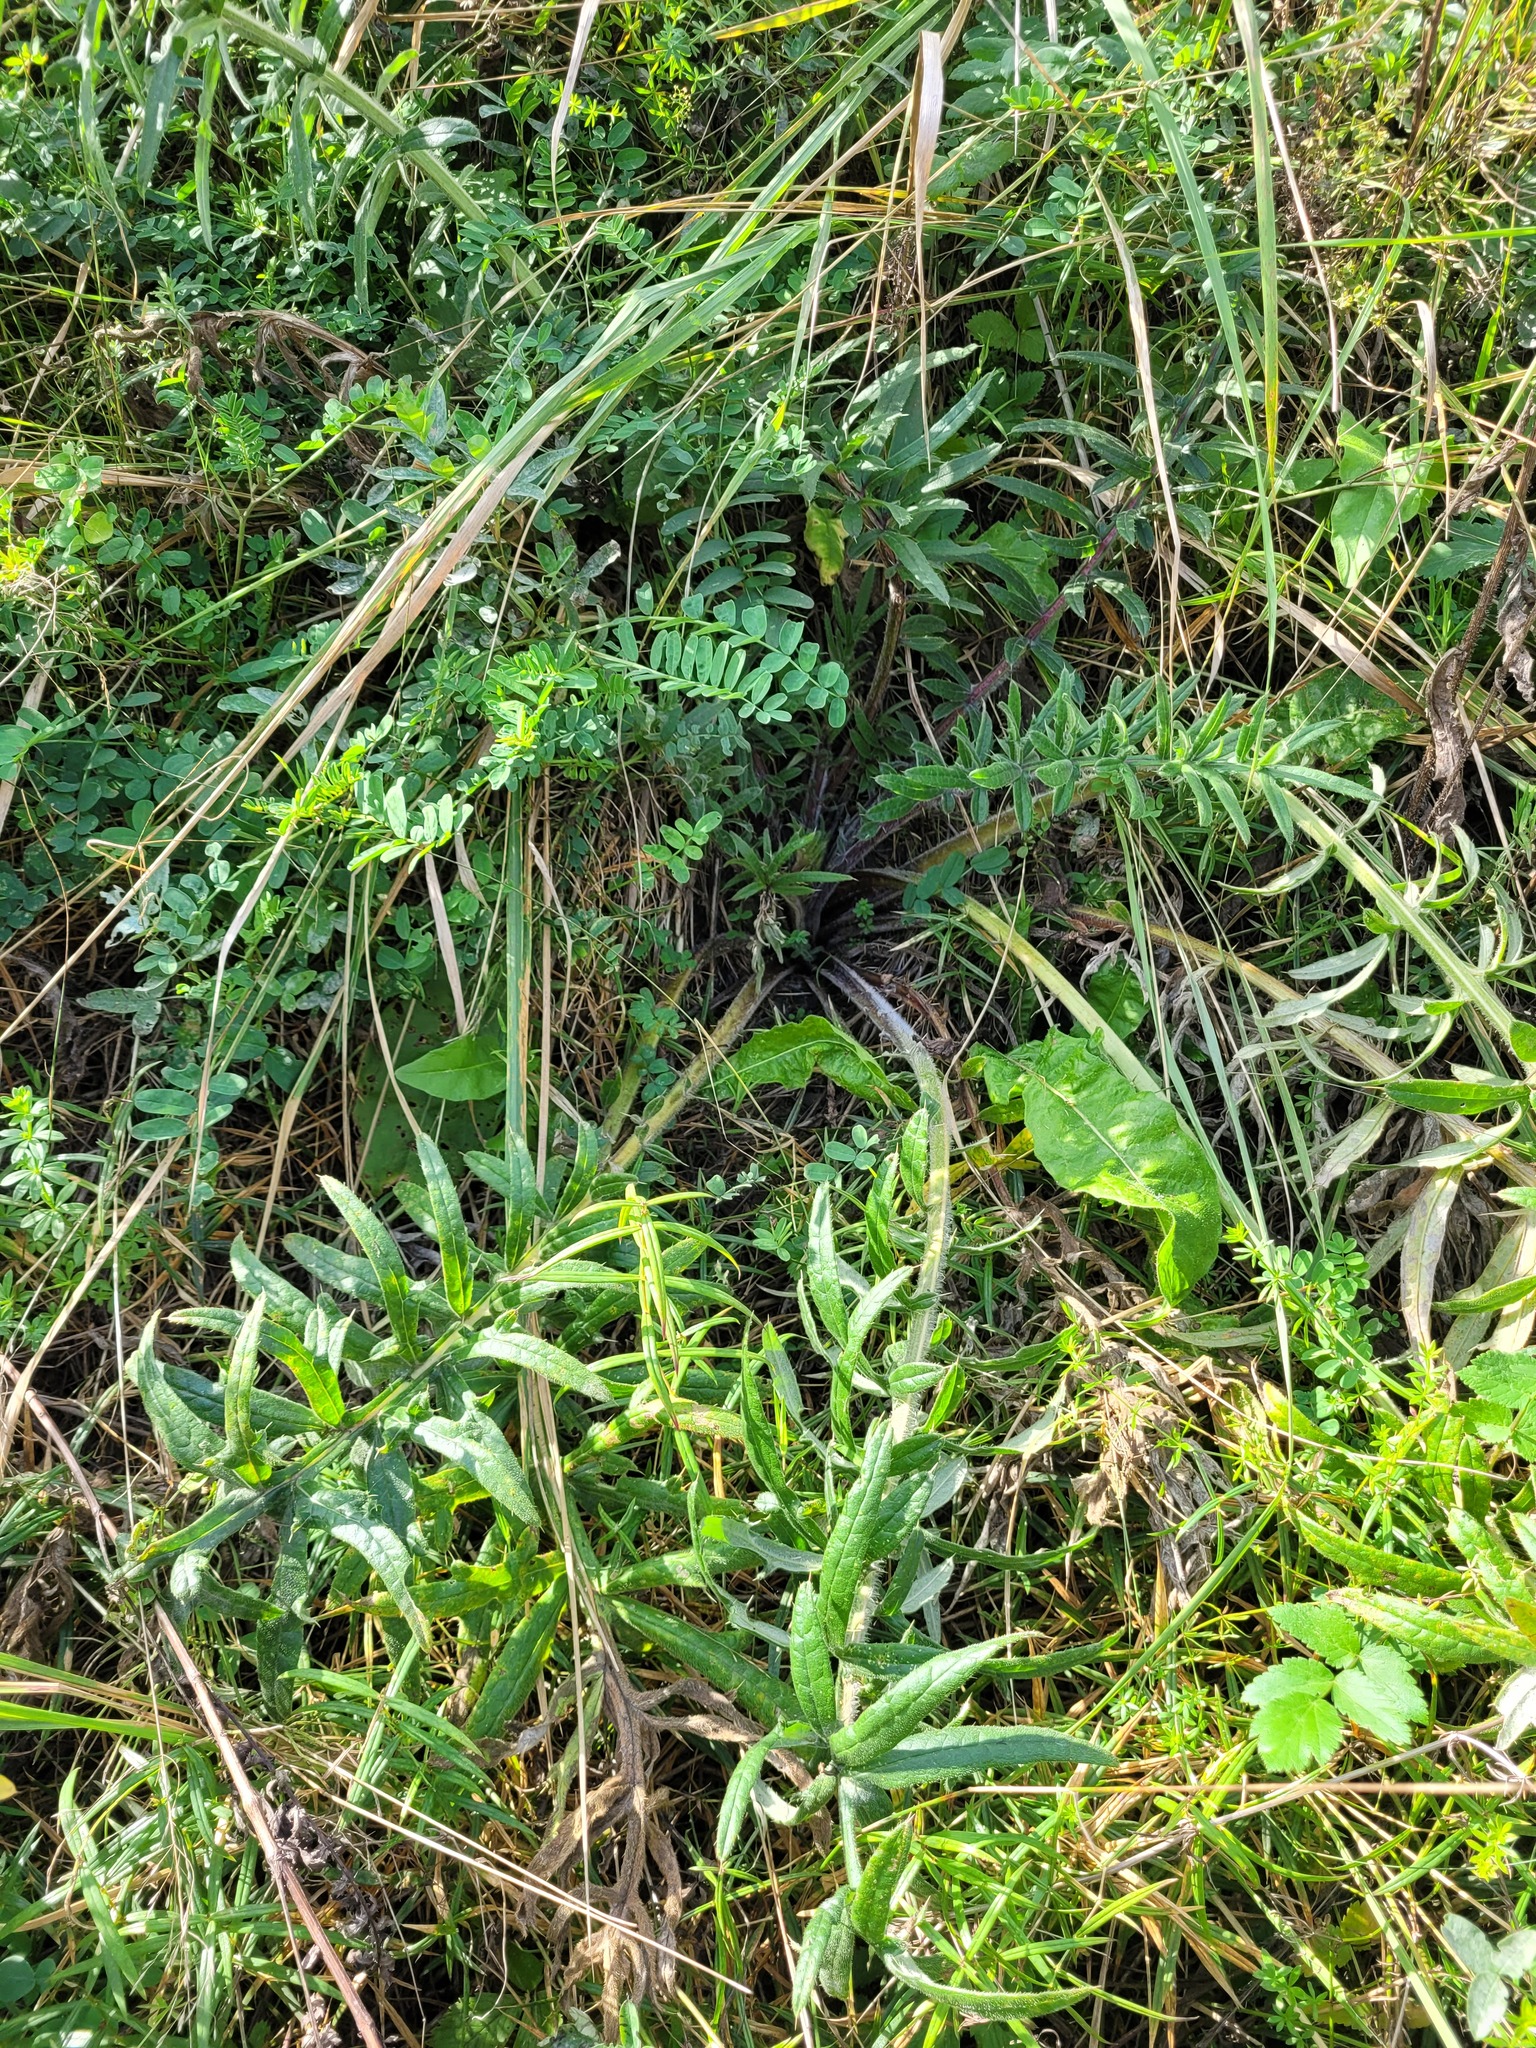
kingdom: Plantae
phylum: Tracheophyta
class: Magnoliopsida
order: Asterales
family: Asteraceae
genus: Lophiolepis
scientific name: Lophiolepis decussata
